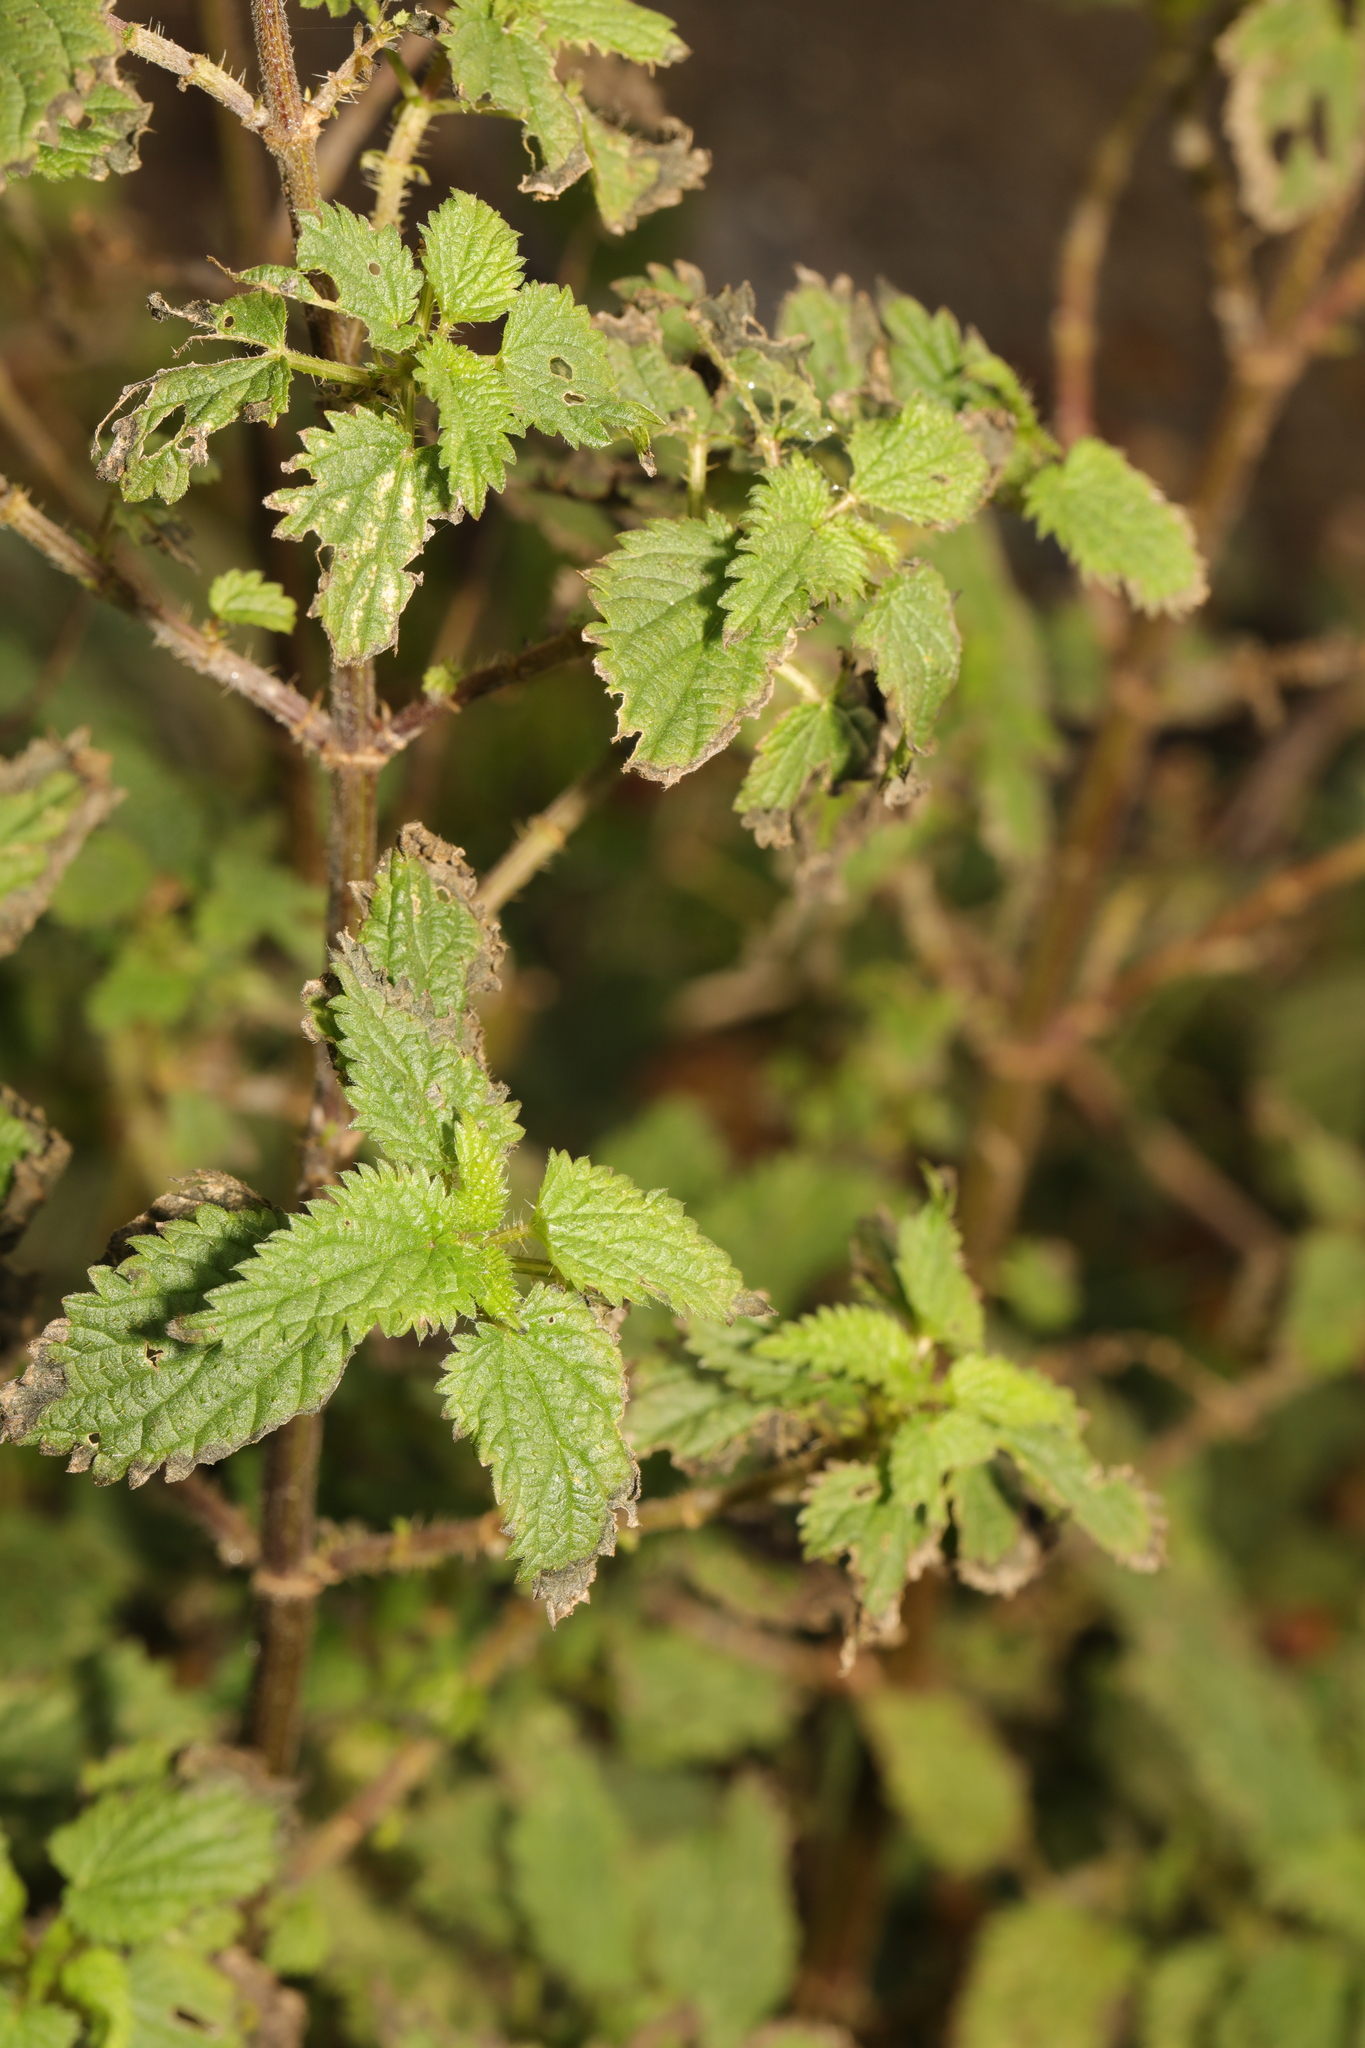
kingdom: Plantae
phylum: Tracheophyta
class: Magnoliopsida
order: Rosales
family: Urticaceae
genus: Urtica
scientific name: Urtica dioica
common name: Common nettle
